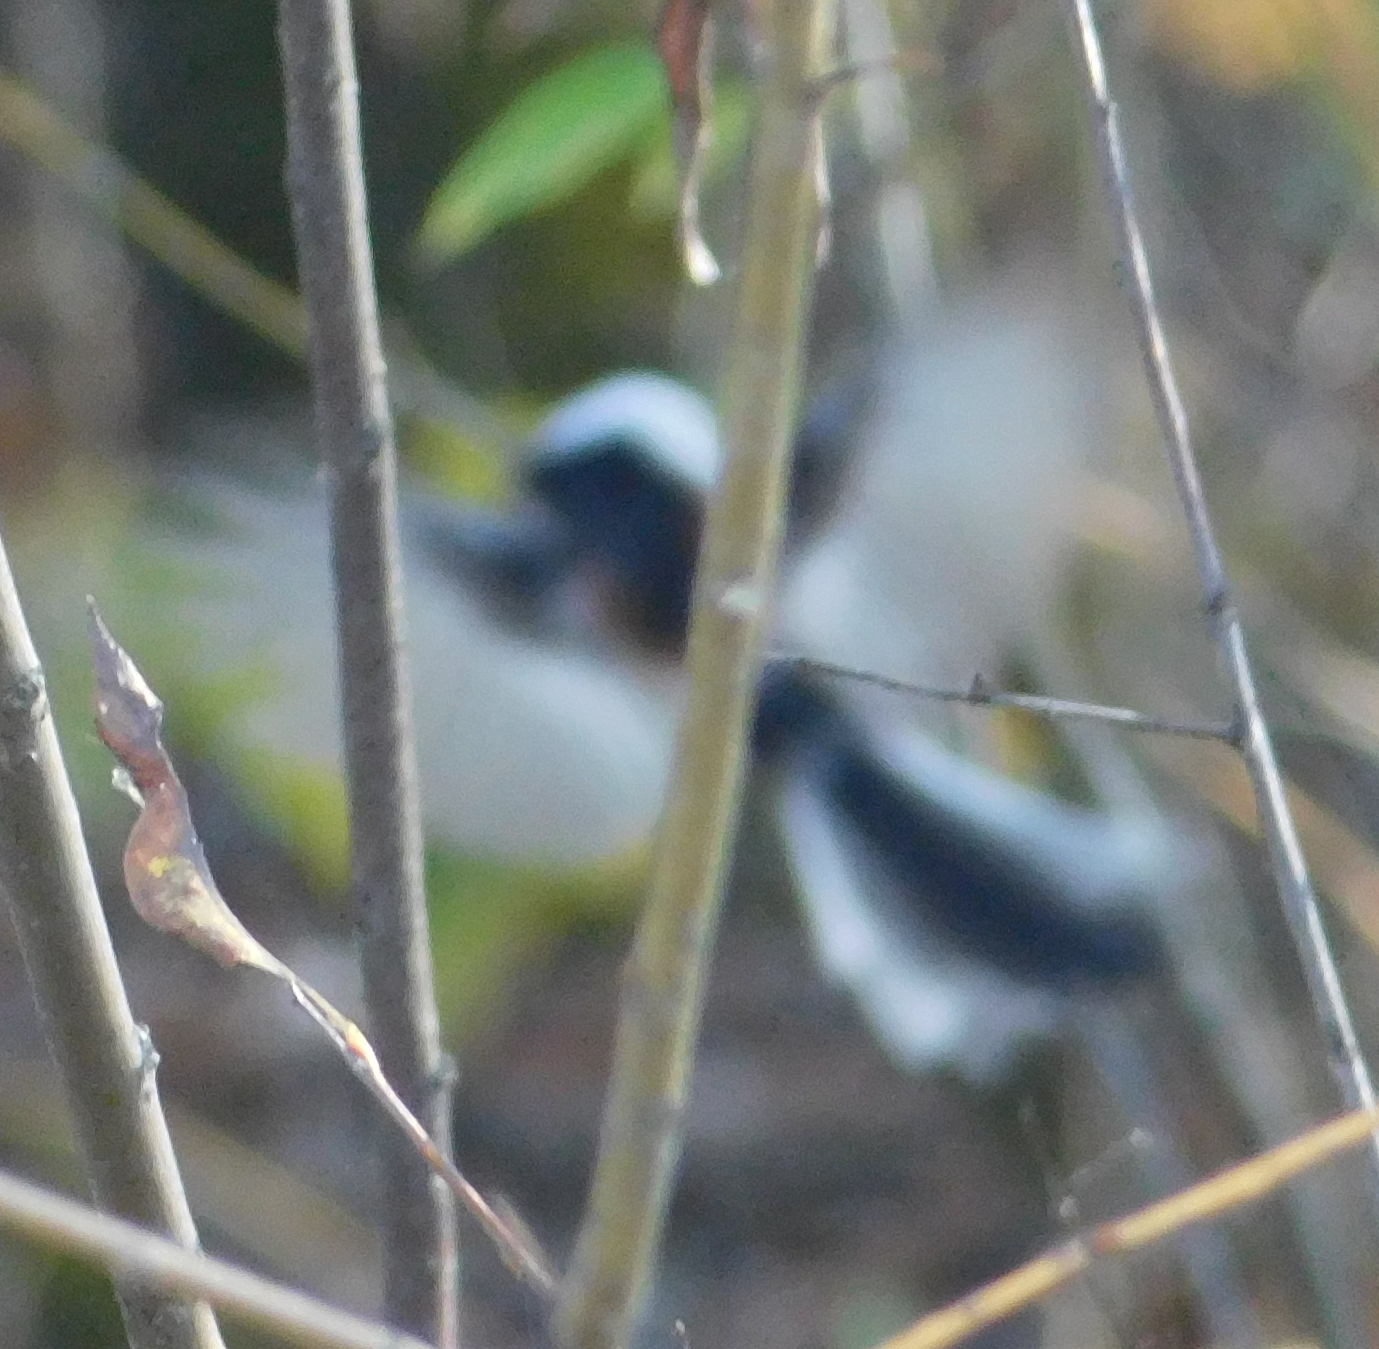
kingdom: Animalia
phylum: Chordata
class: Aves
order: Passeriformes
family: Aegithalidae
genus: Aegithalos
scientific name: Aegithalos caudatus
